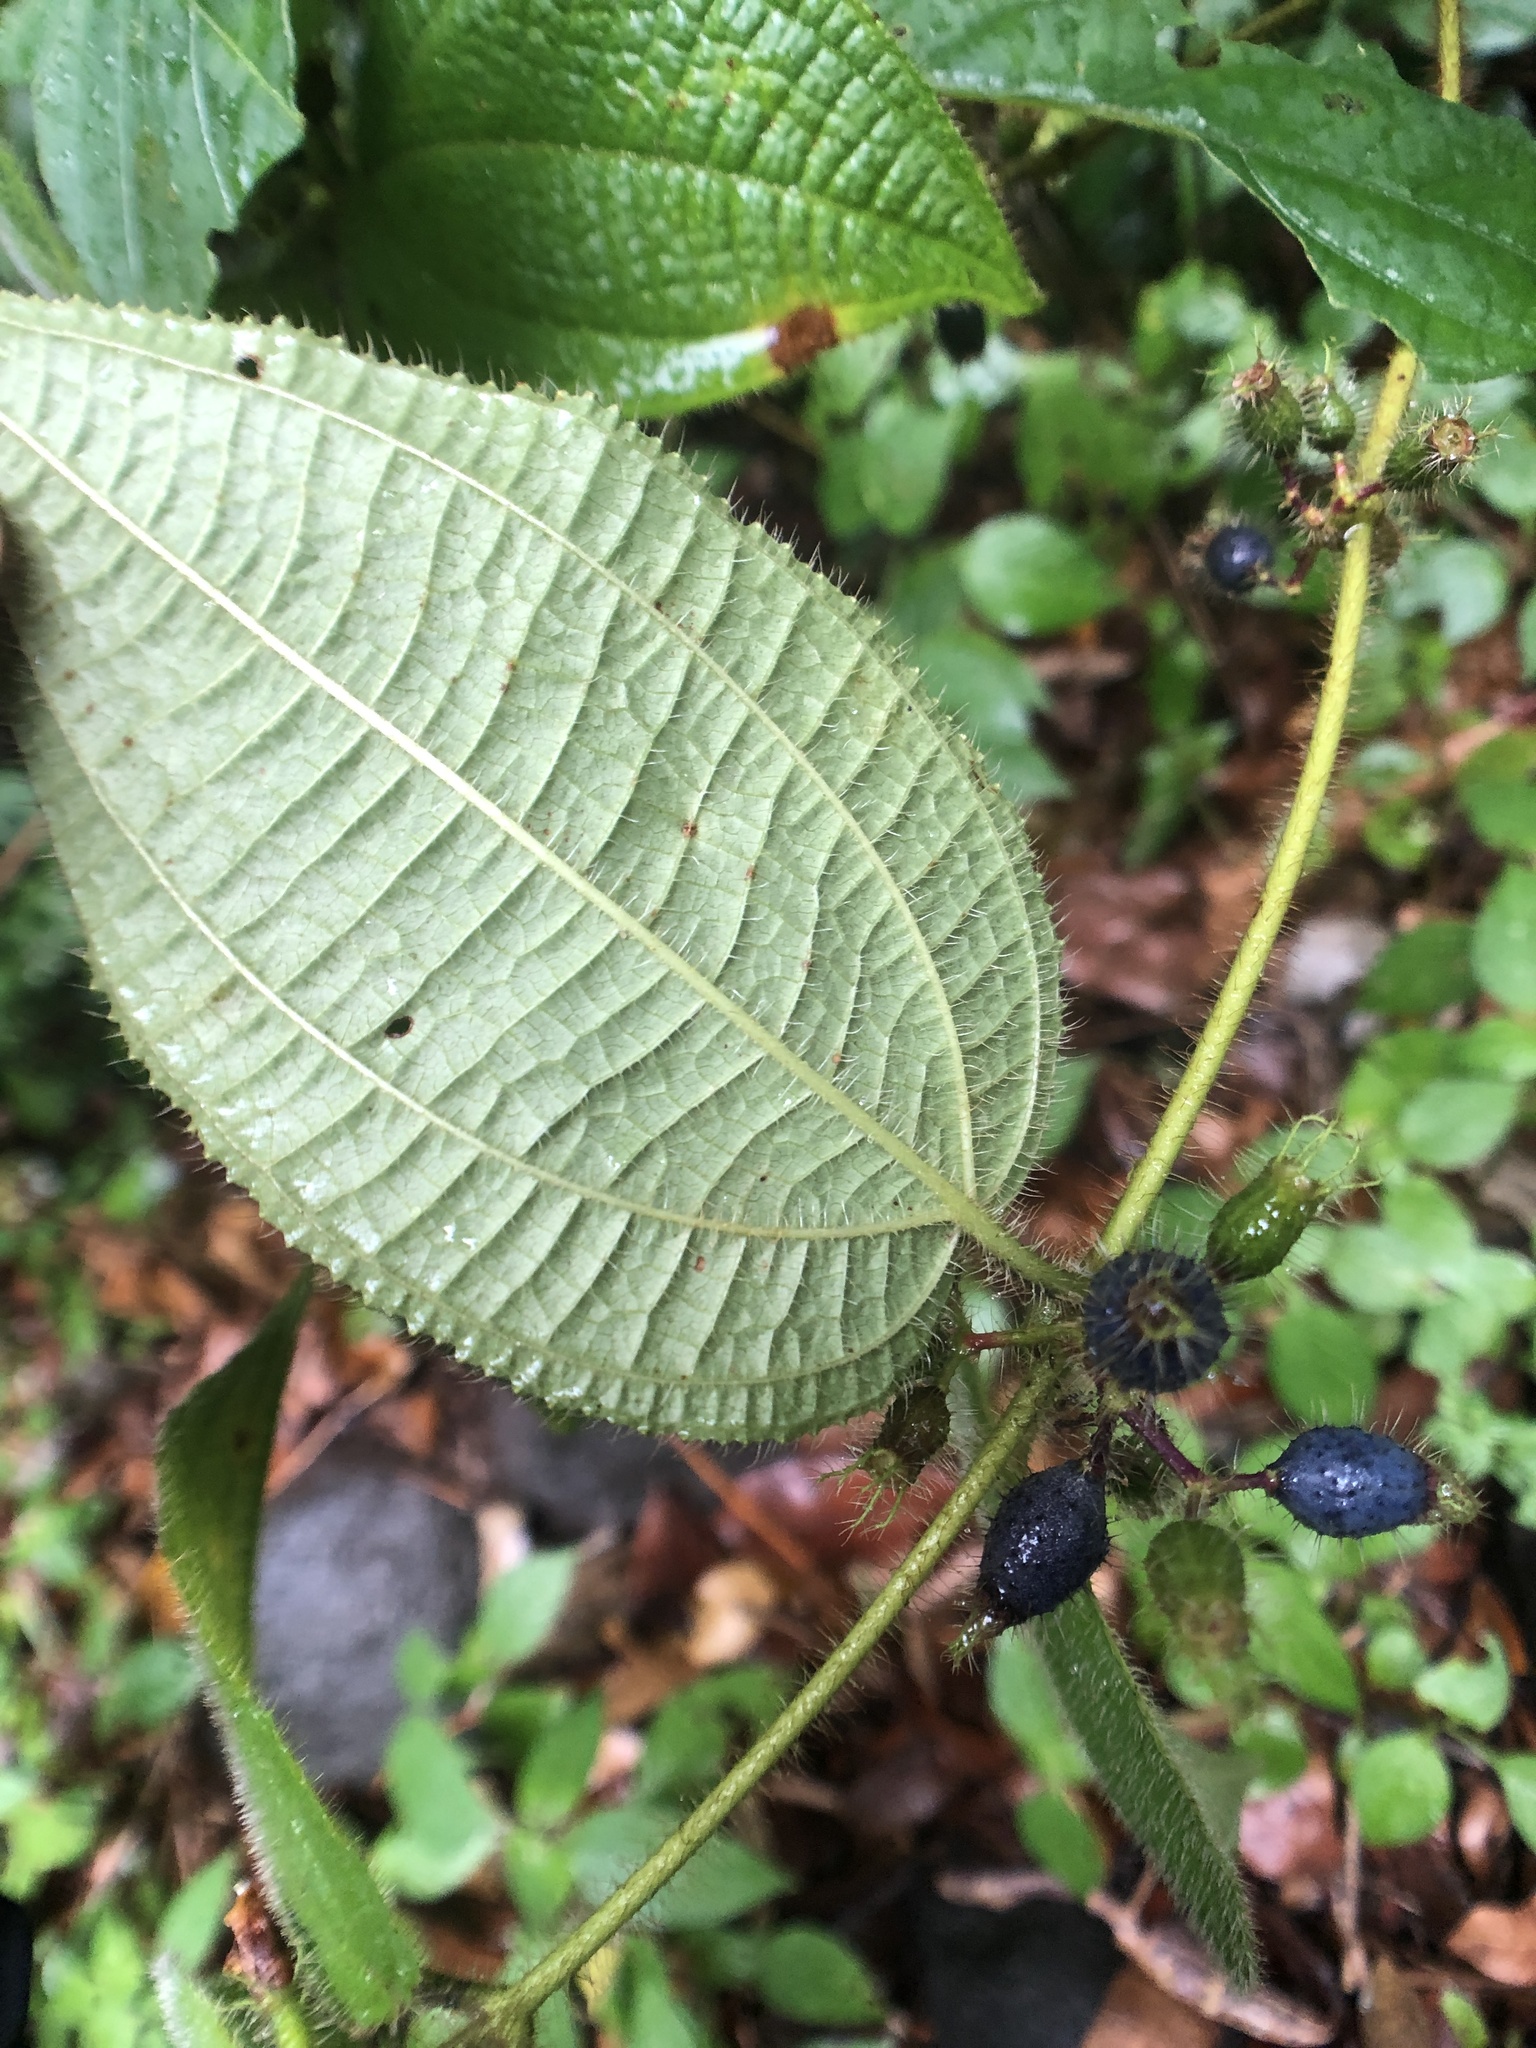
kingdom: Plantae
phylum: Tracheophyta
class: Magnoliopsida
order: Myrtales
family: Melastomataceae
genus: Miconia
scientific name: Miconia crenata
